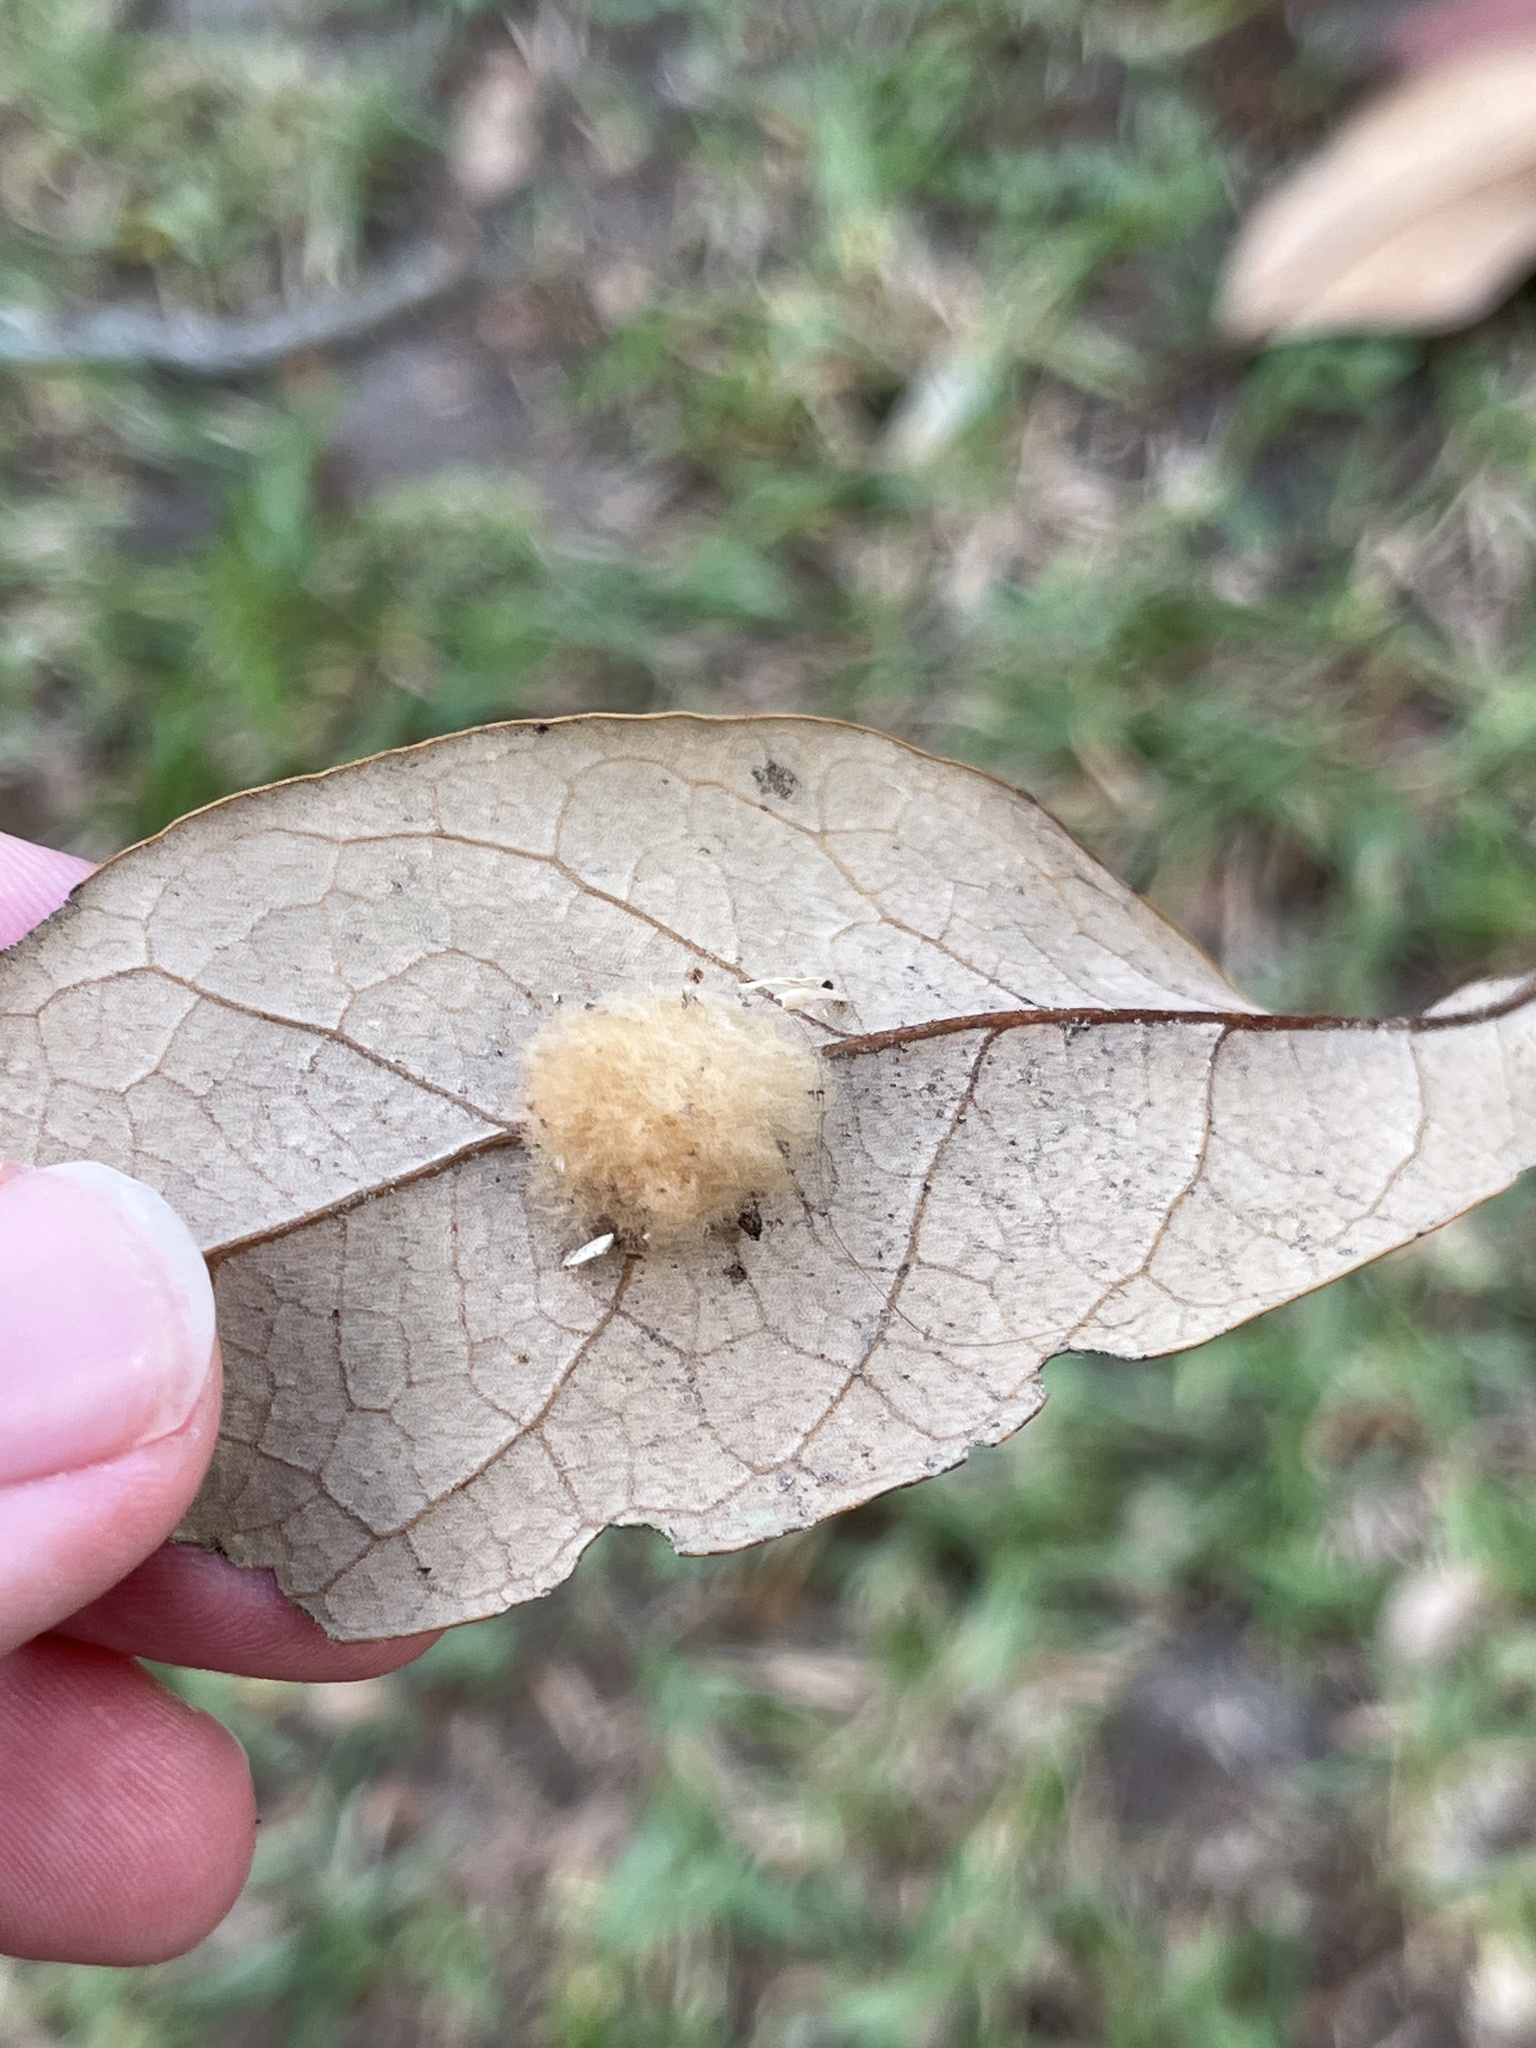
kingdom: Animalia
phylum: Arthropoda
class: Insecta
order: Hymenoptera
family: Cynipidae
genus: Andricus
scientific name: Andricus Druon quercuslanigerum
